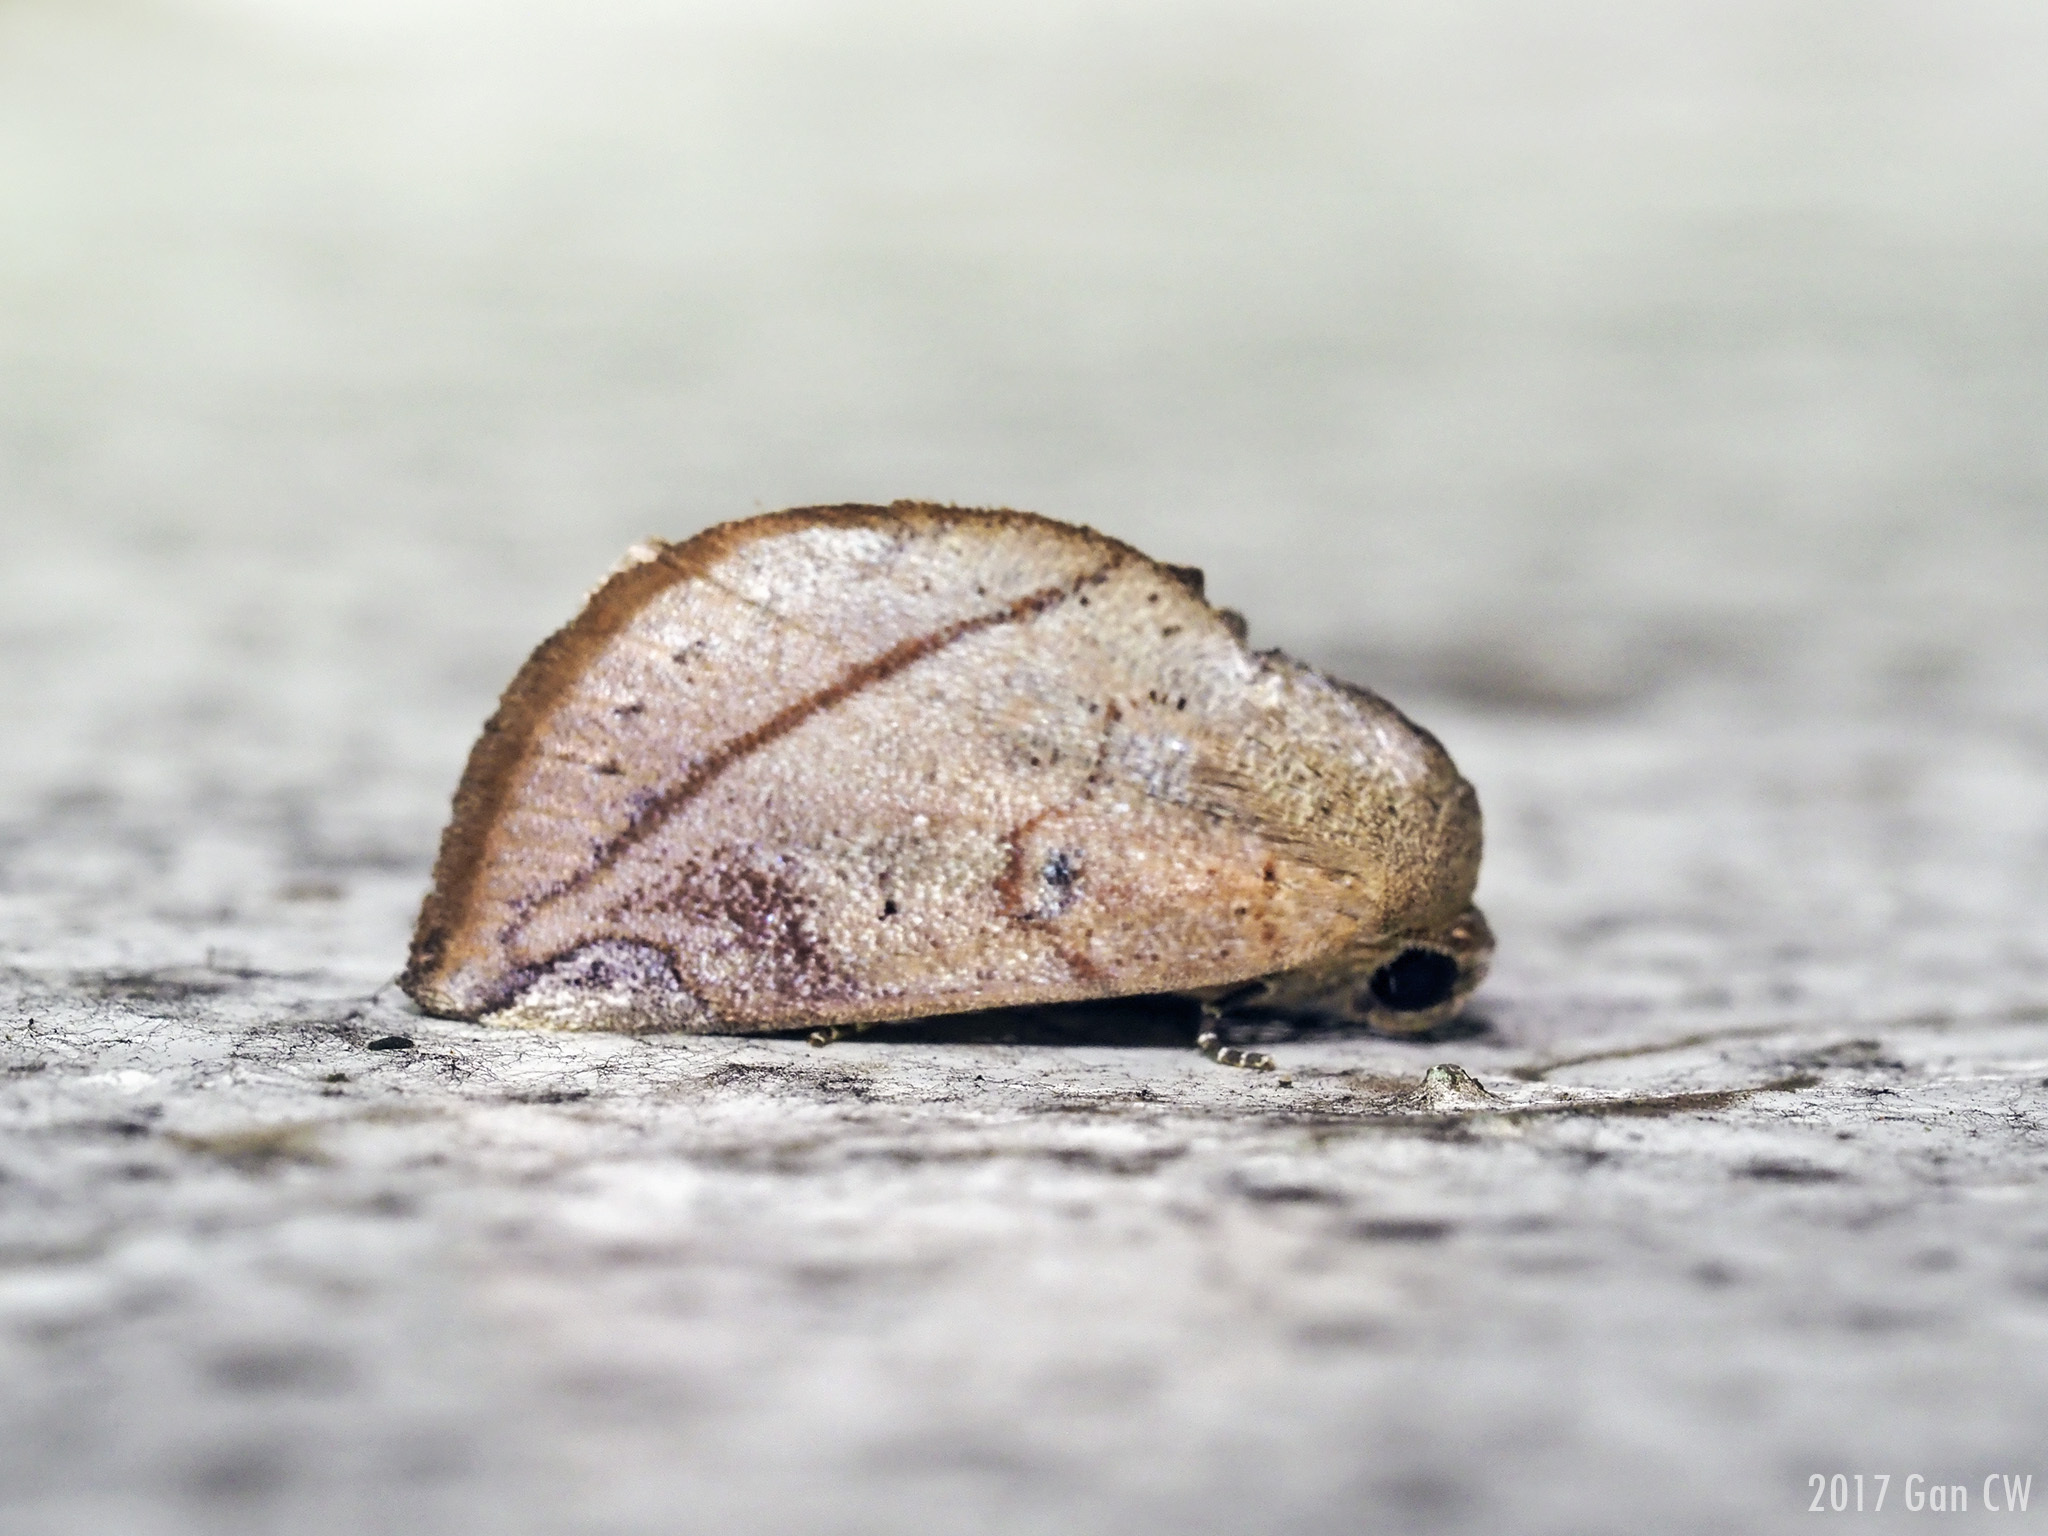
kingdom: Animalia
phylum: Arthropoda
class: Insecta
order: Lepidoptera
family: Nolidae
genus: Negeta
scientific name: Negeta contrariata
